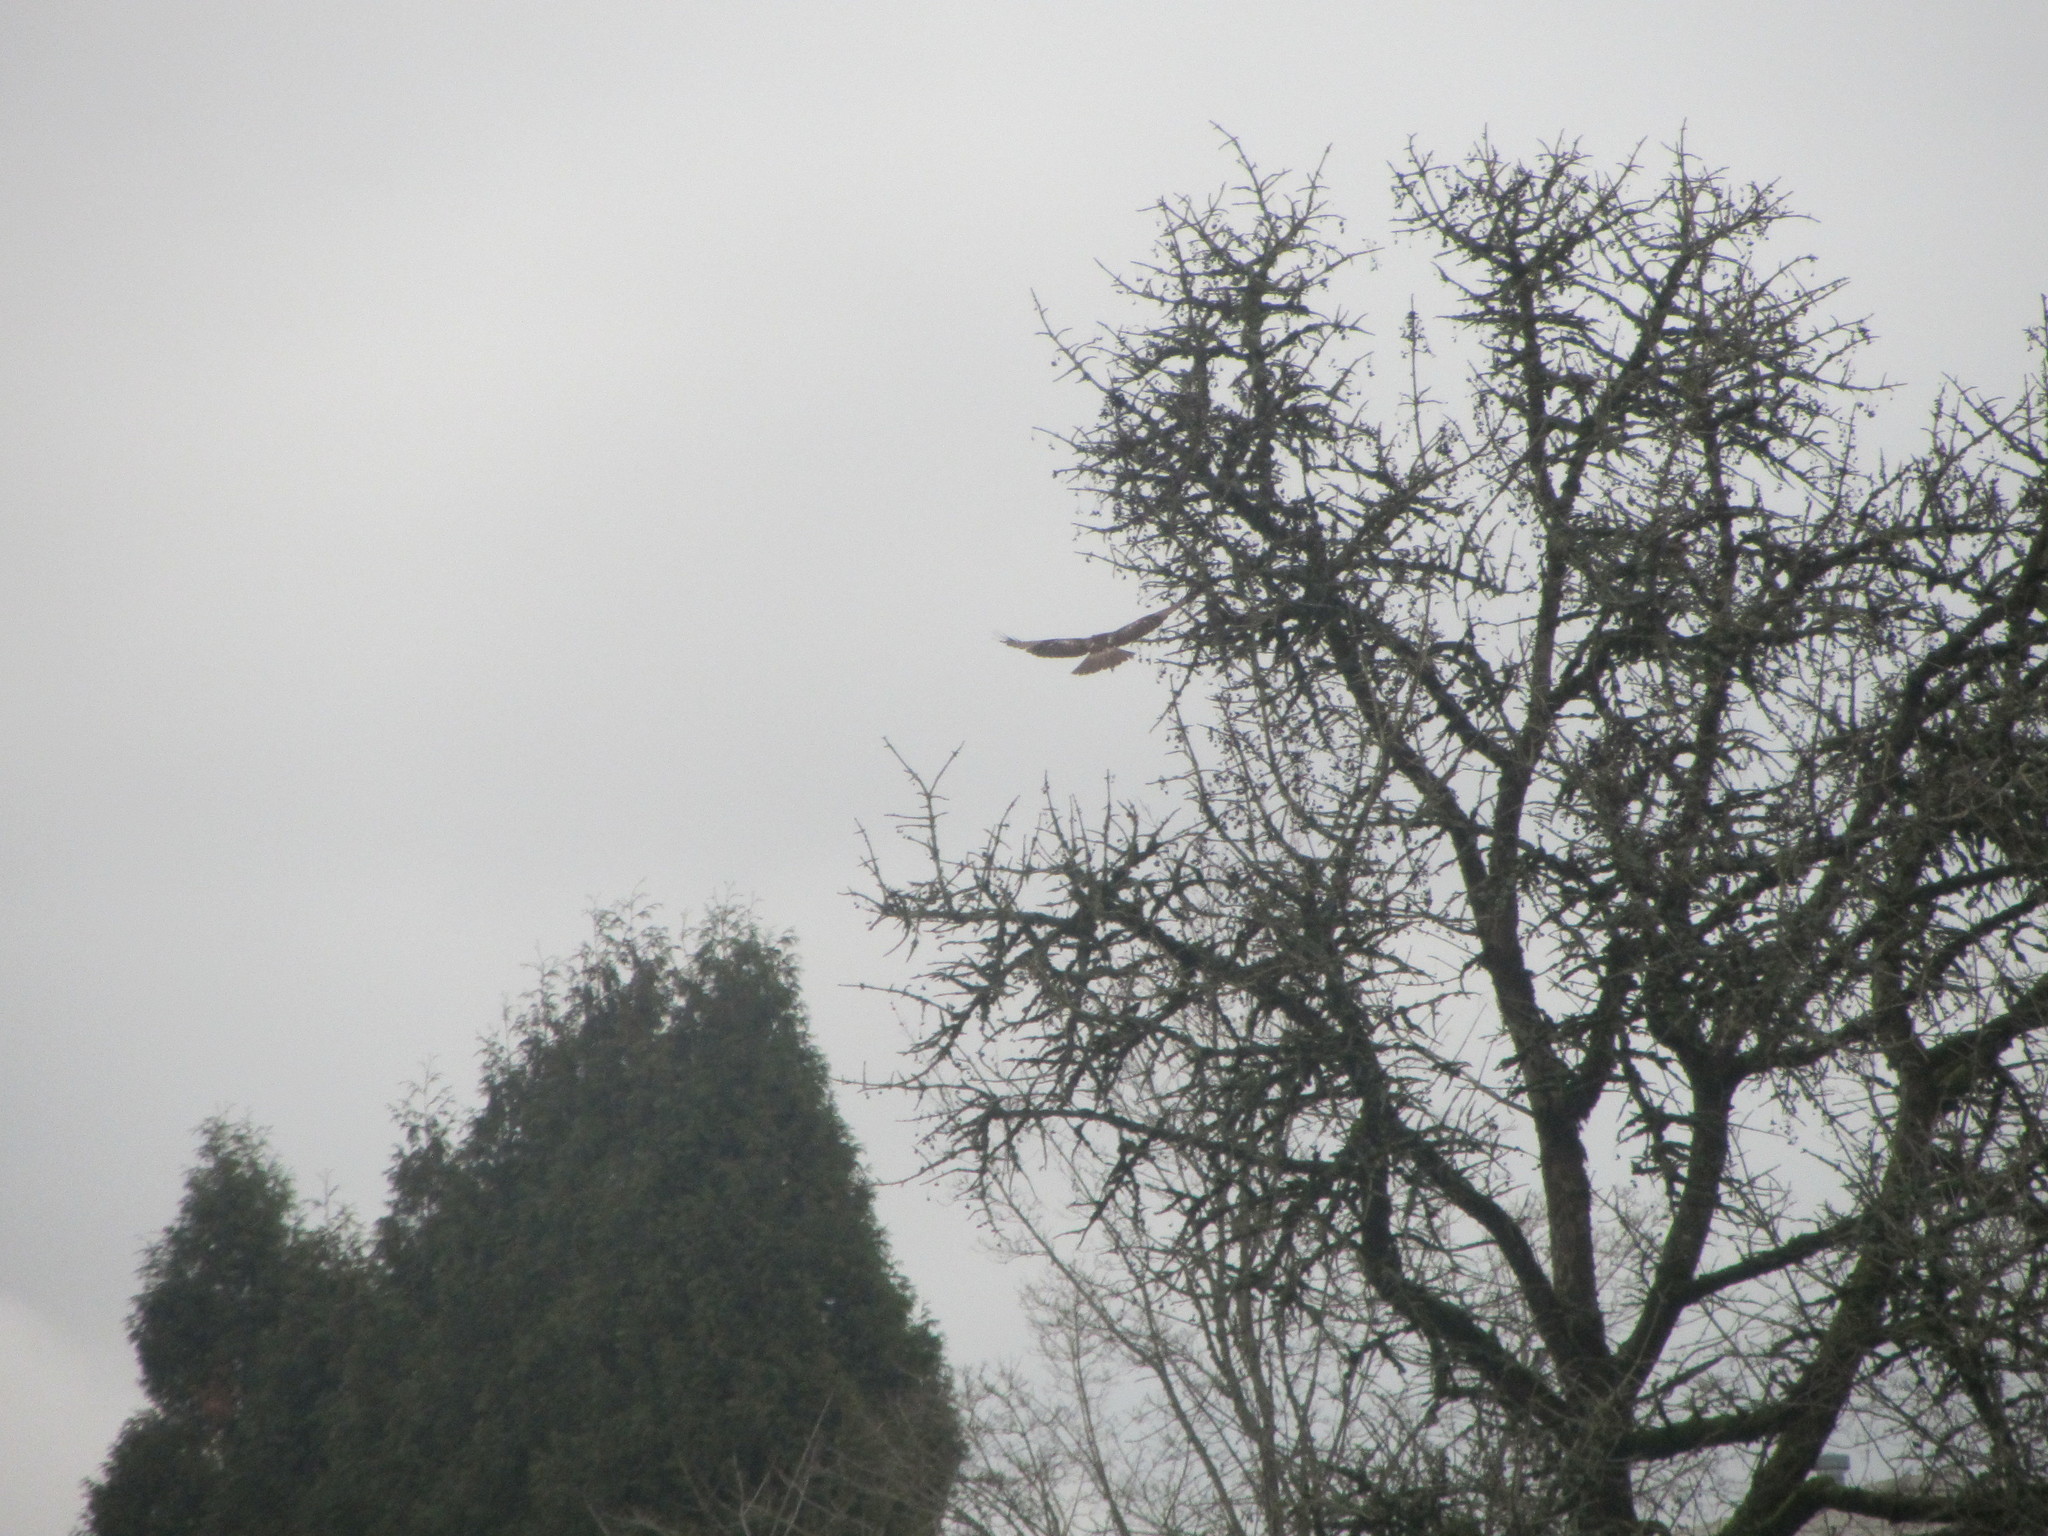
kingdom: Animalia
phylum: Chordata
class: Aves
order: Accipitriformes
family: Accipitridae
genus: Buteo
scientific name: Buteo jamaicensis
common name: Red-tailed hawk
